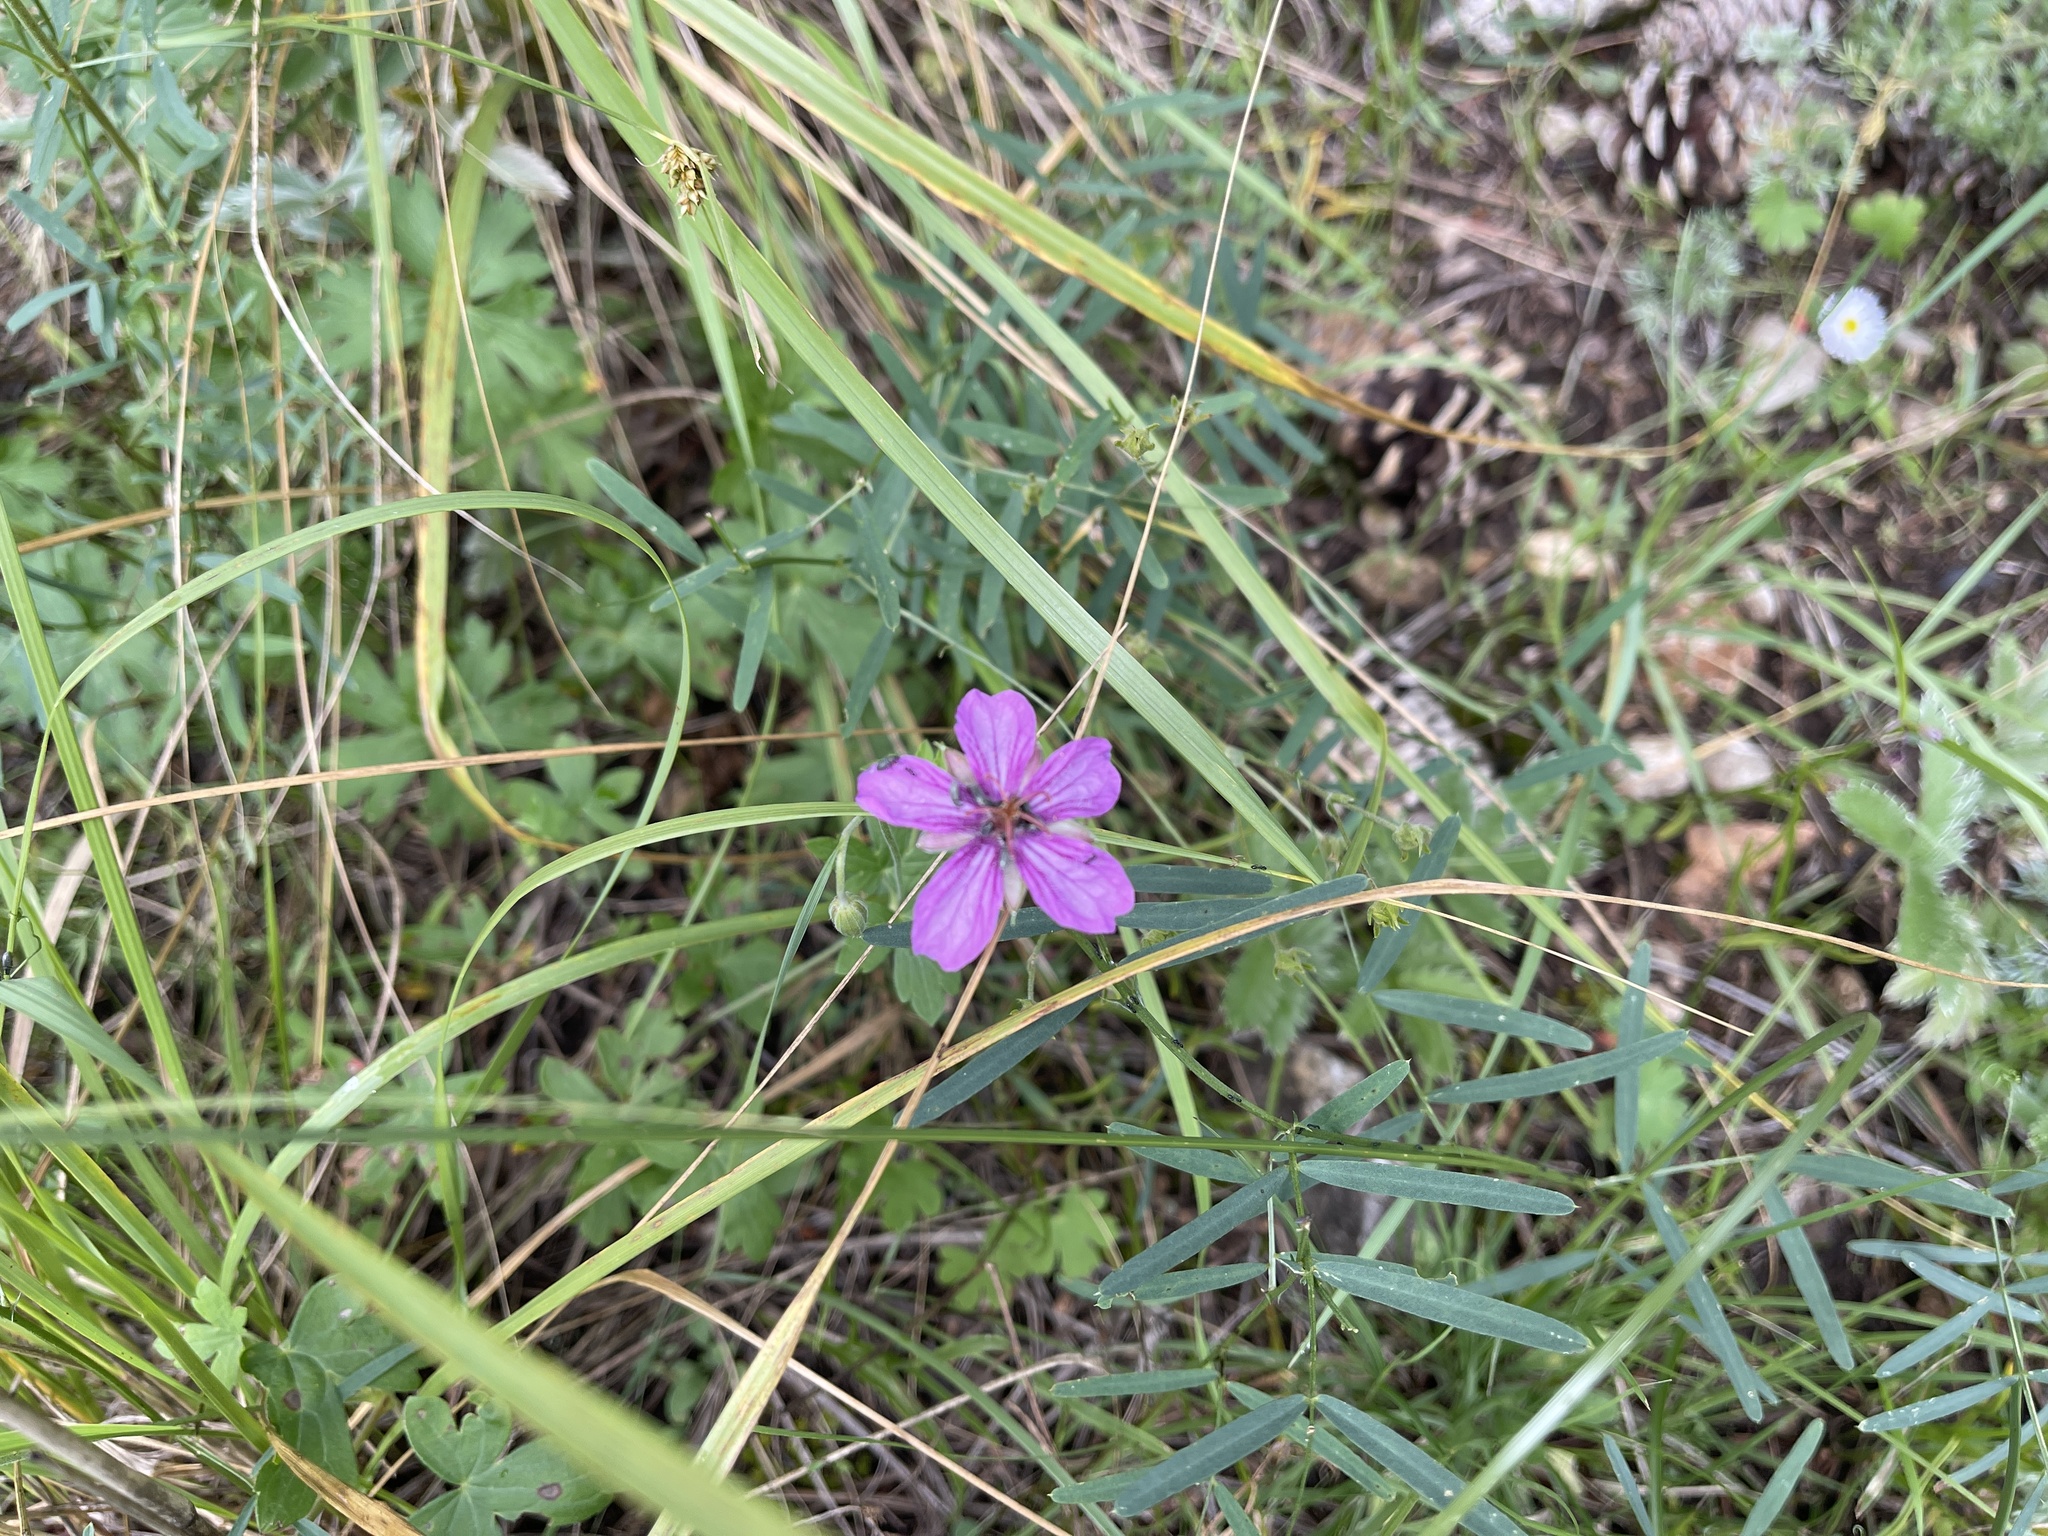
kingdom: Plantae
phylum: Tracheophyta
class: Magnoliopsida
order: Geraniales
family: Geraniaceae
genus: Geranium
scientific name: Geranium caespitosum
